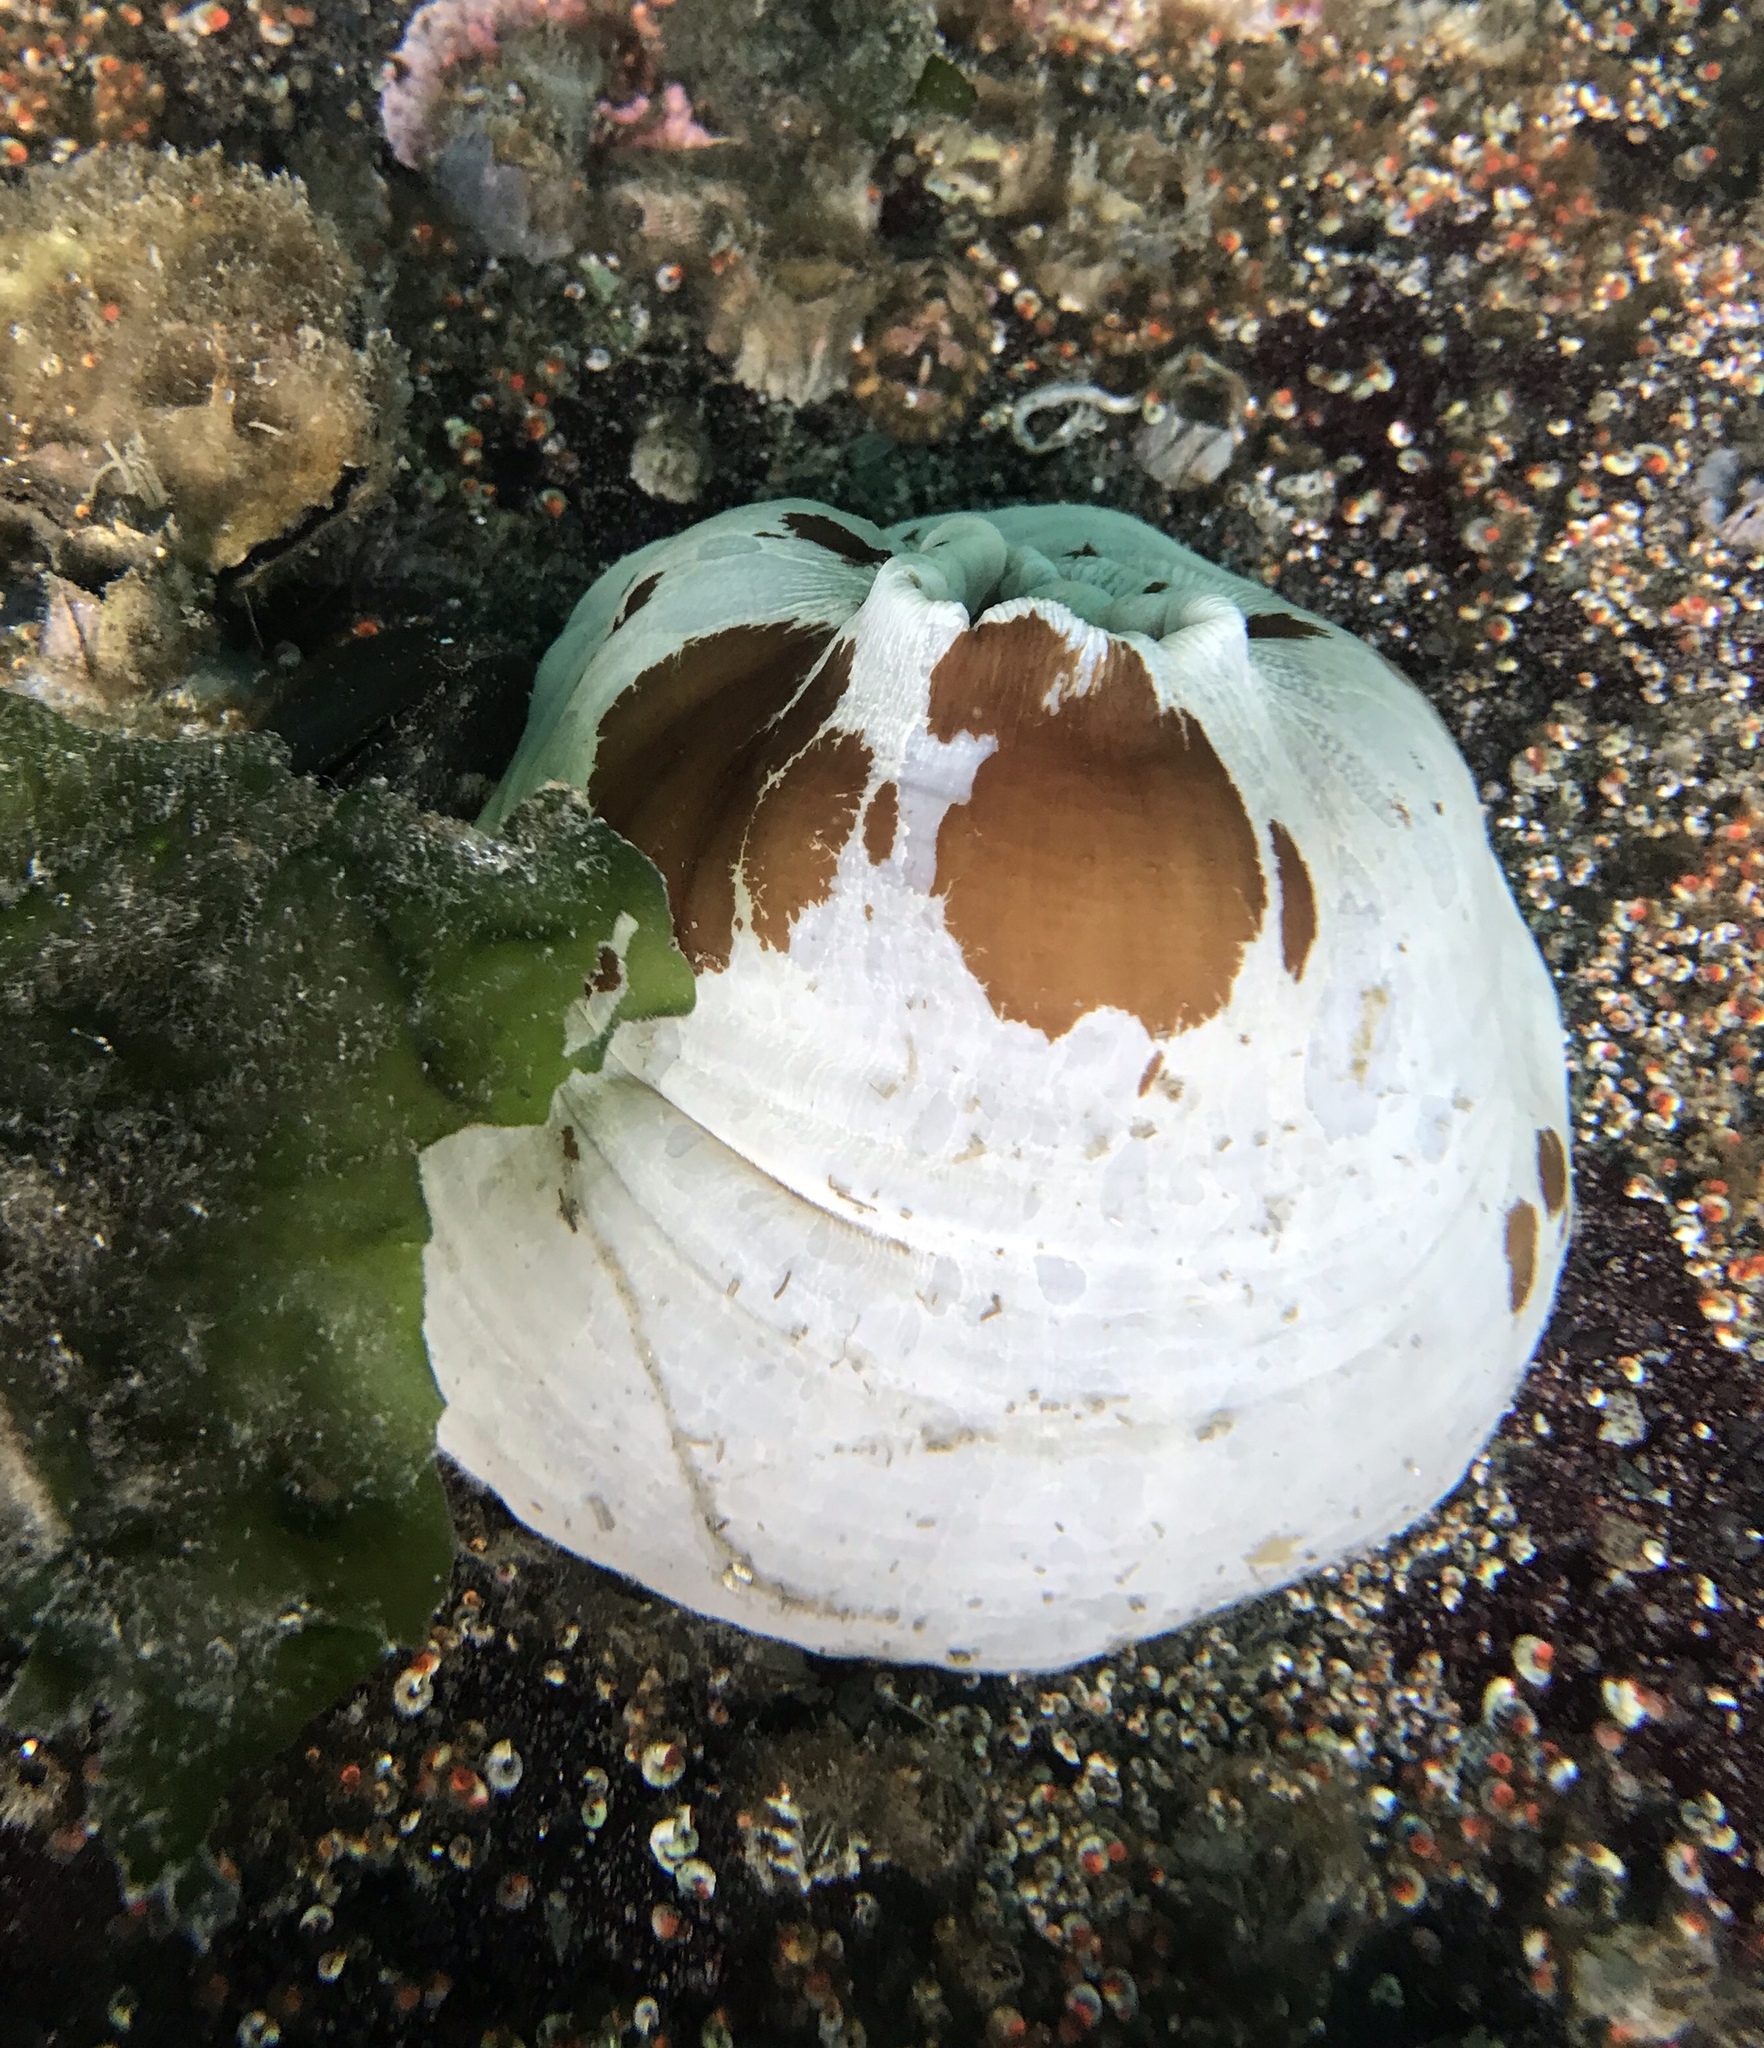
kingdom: Animalia
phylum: Cnidaria
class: Anthozoa
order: Actiniaria
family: Metridiidae
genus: Metridium
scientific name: Metridium farcimen
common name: Gigantic anemone
